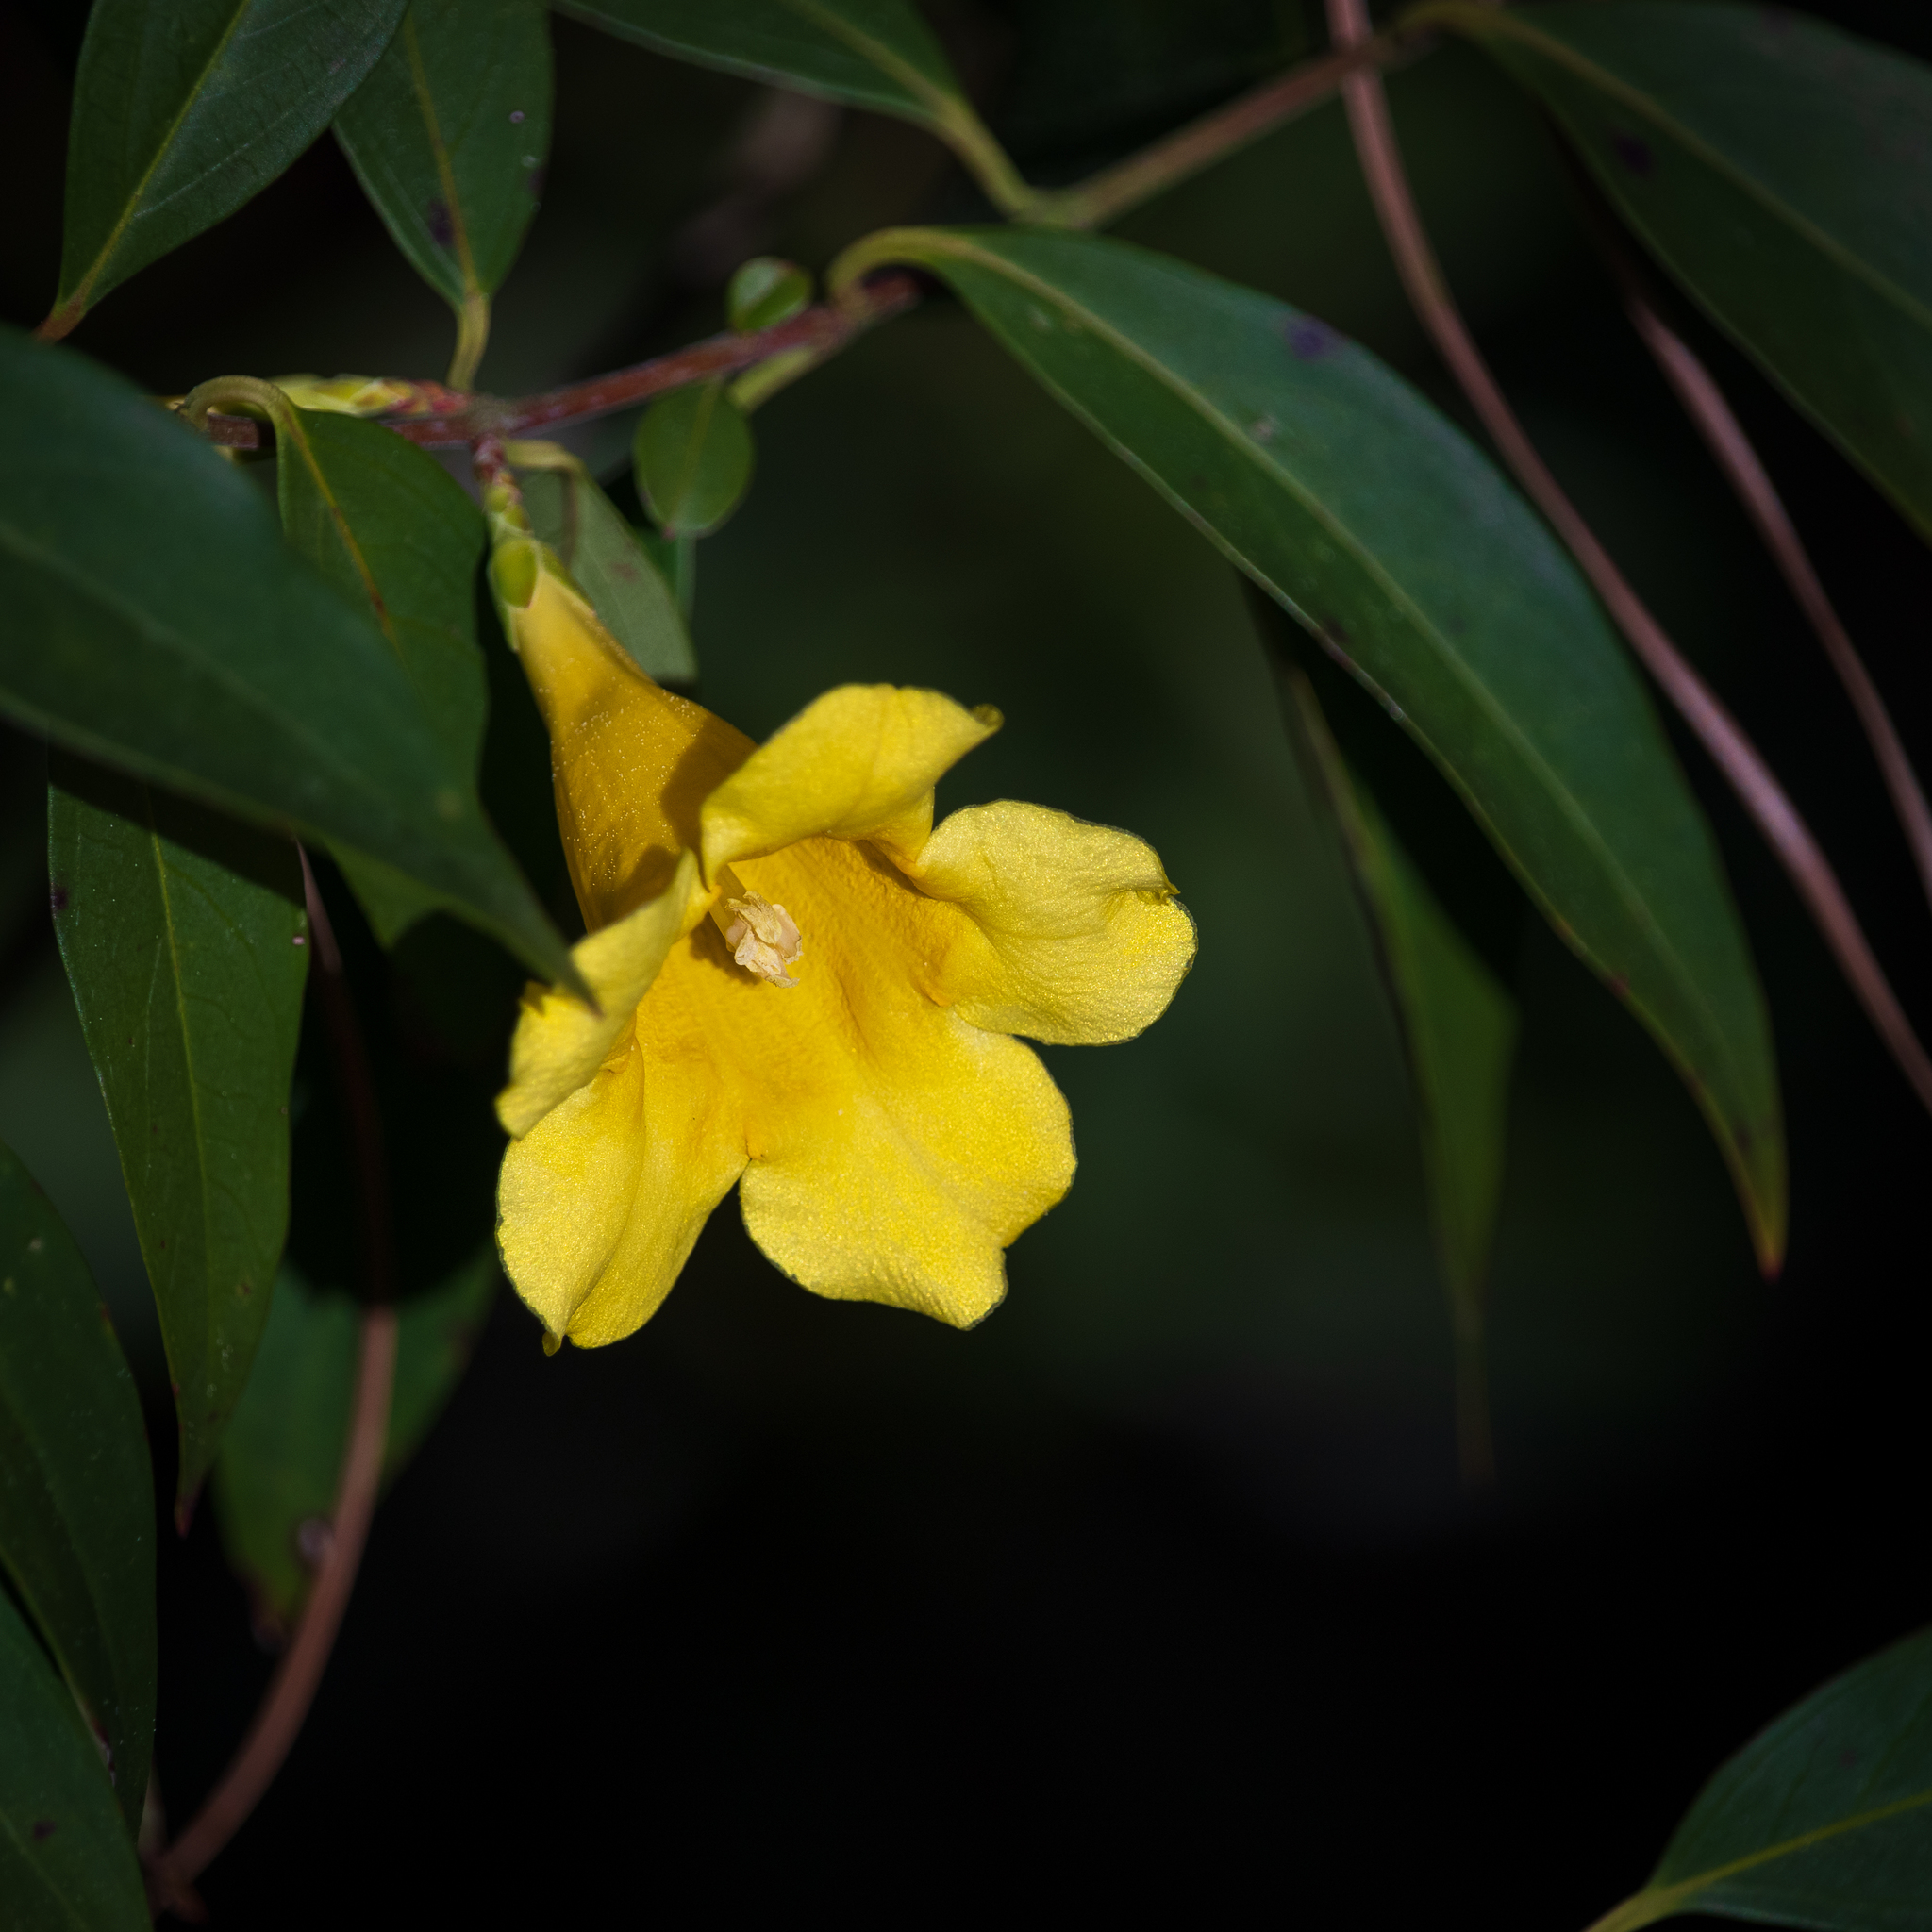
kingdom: Plantae
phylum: Tracheophyta
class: Magnoliopsida
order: Gentianales
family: Gelsemiaceae
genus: Gelsemium
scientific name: Gelsemium sempervirens
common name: Carolina-jasmine
